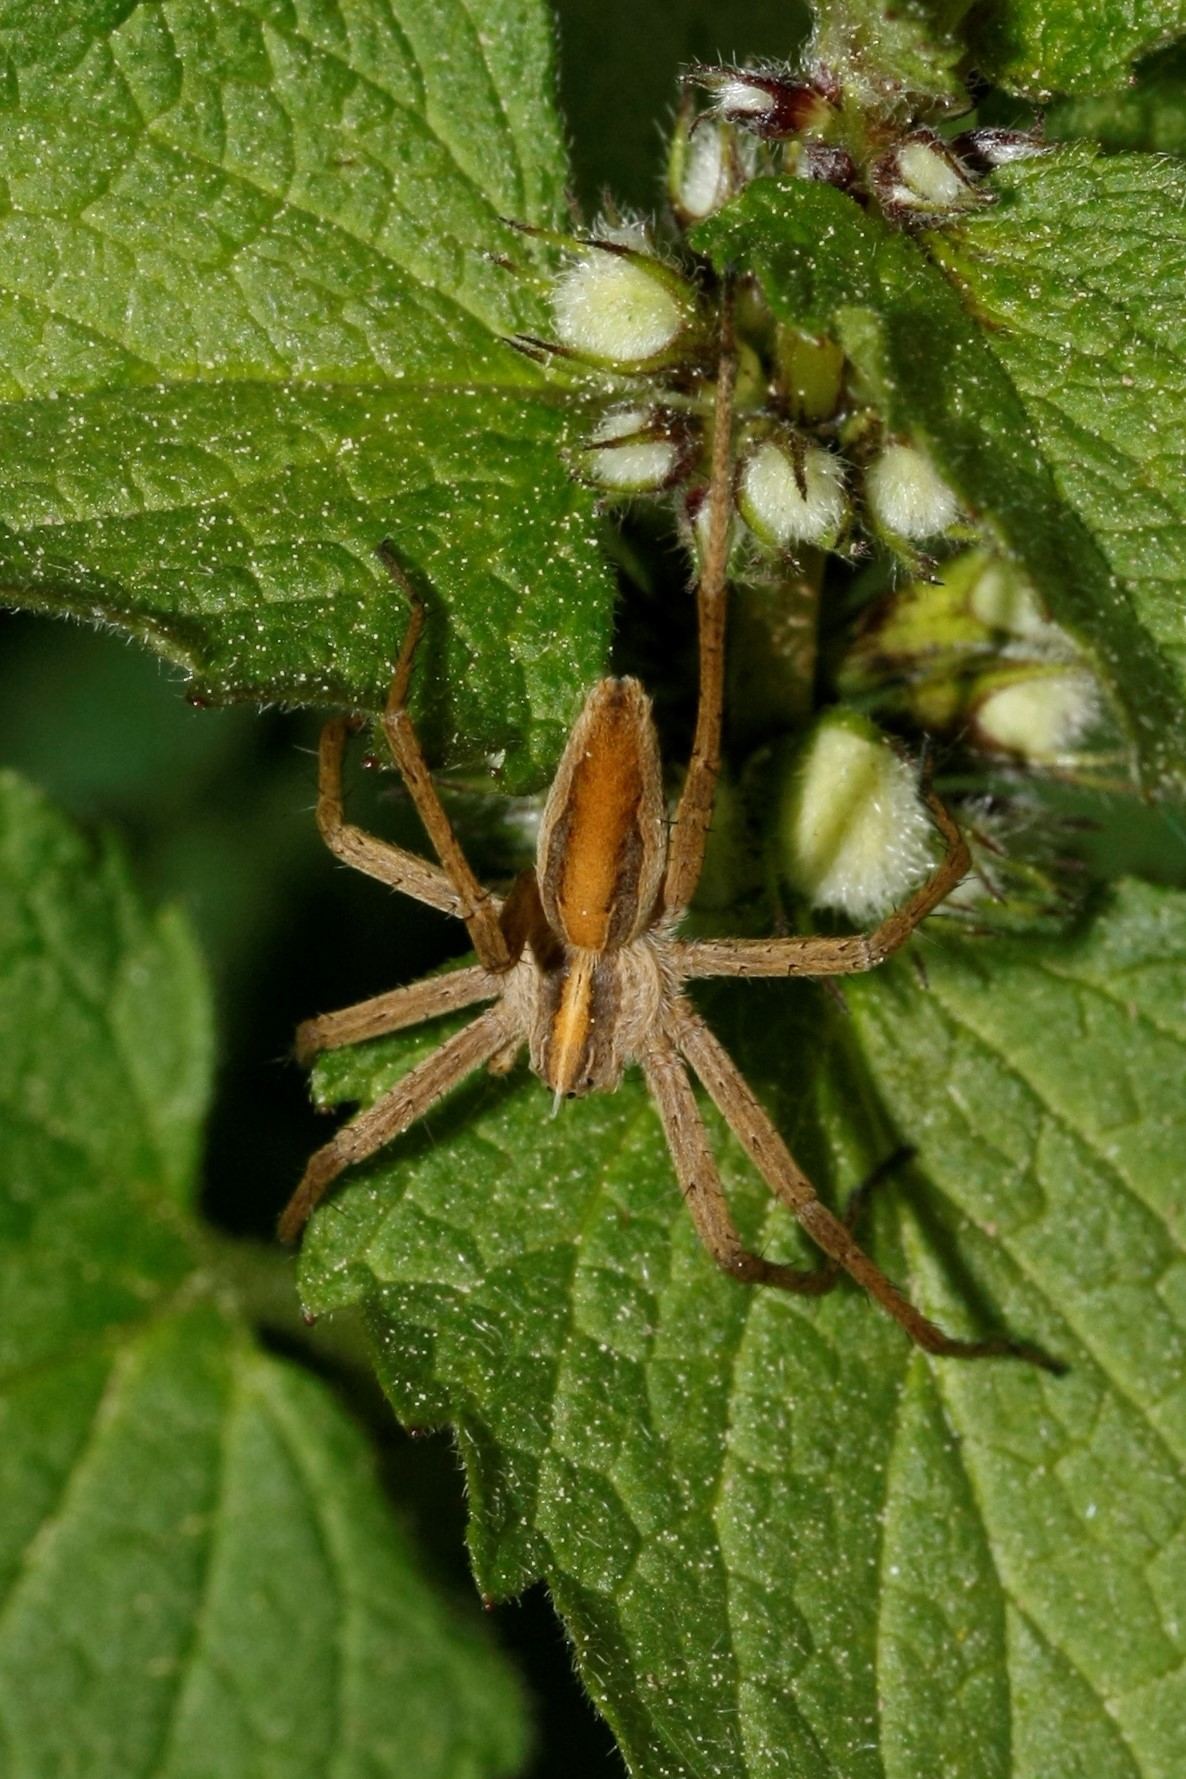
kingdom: Animalia
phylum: Arthropoda
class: Arachnida
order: Araneae
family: Pisauridae
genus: Pisaura
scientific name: Pisaura mirabilis
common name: Tent spider
